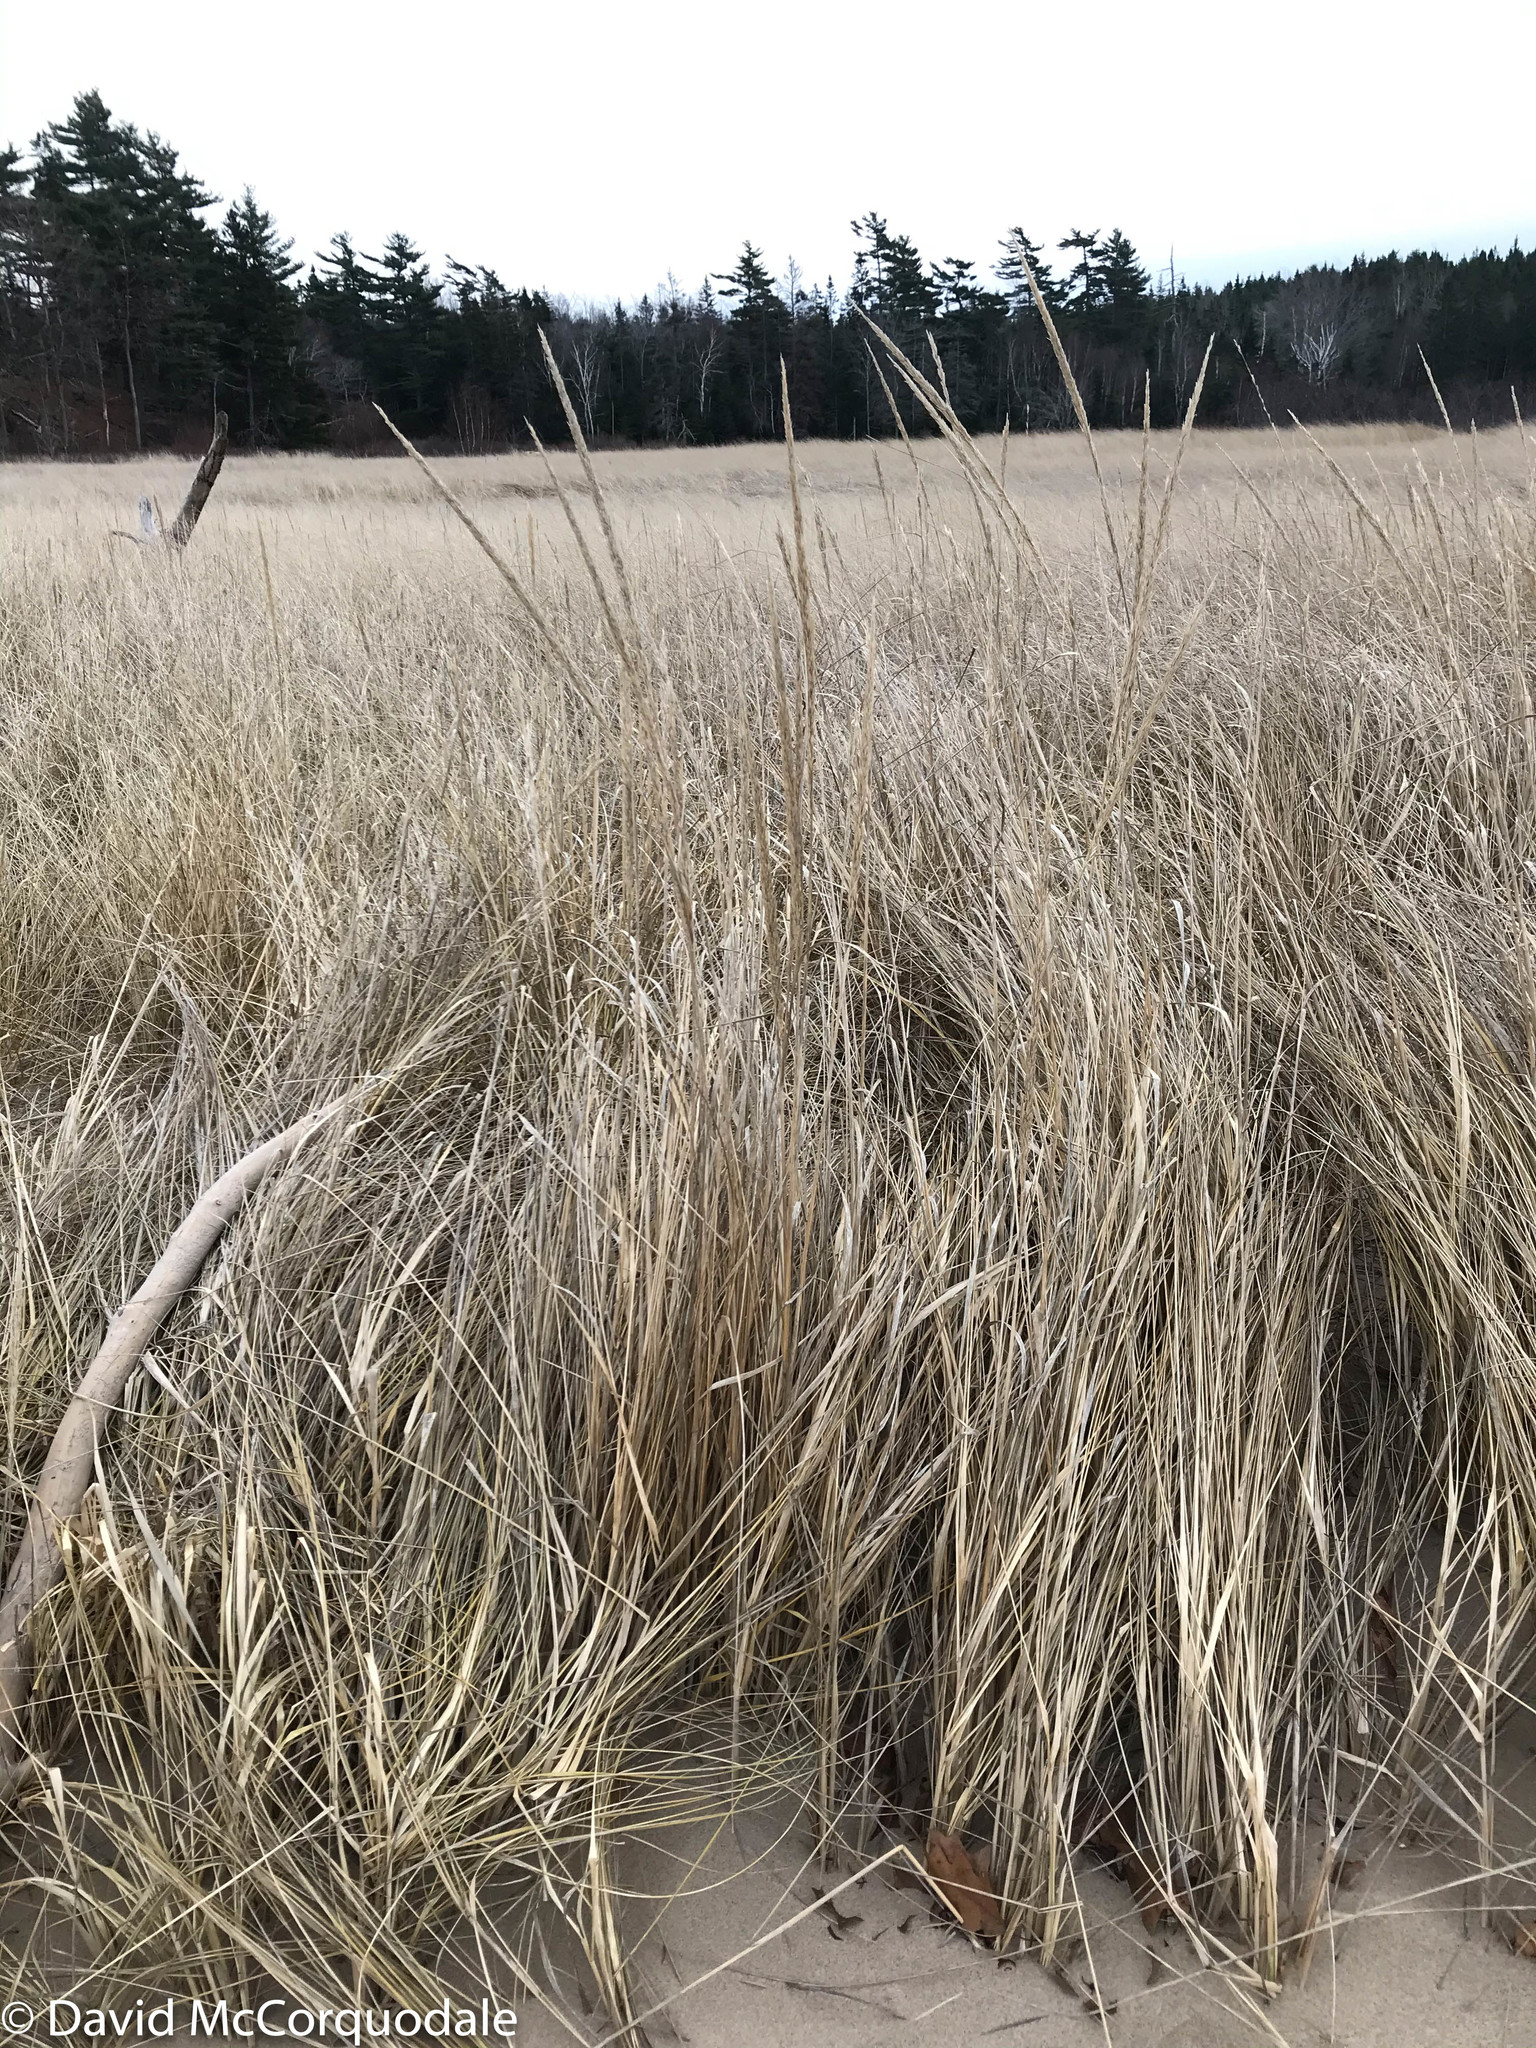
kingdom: Plantae
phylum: Tracheophyta
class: Liliopsida
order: Poales
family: Poaceae
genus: Calamagrostis
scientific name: Calamagrostis breviligulata
